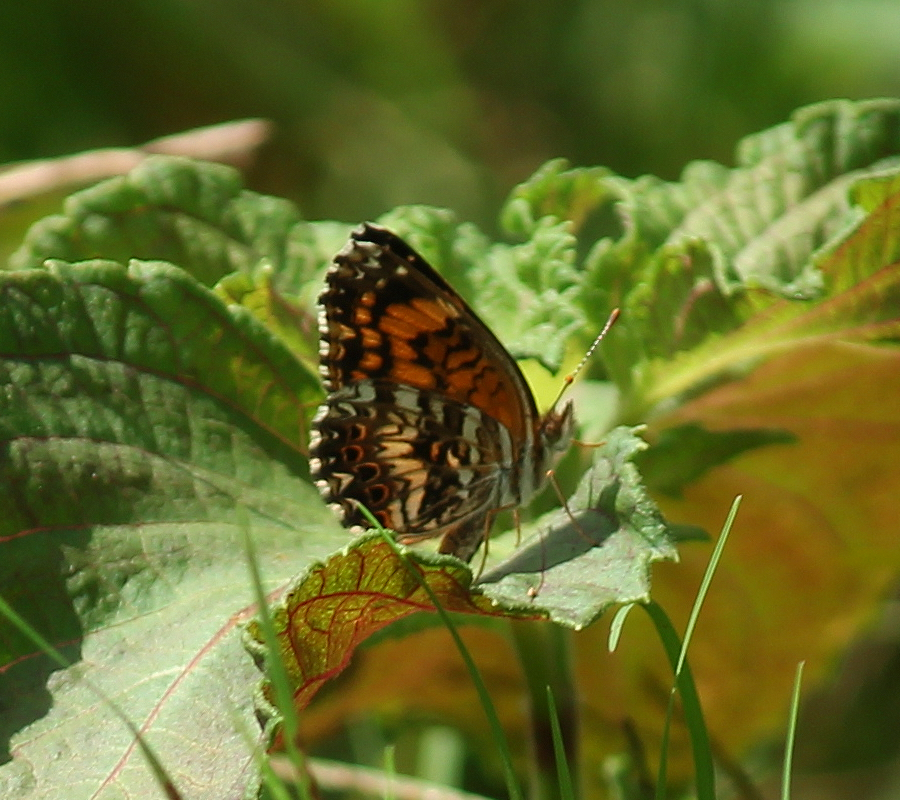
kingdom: Animalia
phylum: Arthropoda
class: Insecta
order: Lepidoptera
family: Nymphalidae
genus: Chlosyne
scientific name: Chlosyne gorgone
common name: Gorgone checkerspot
